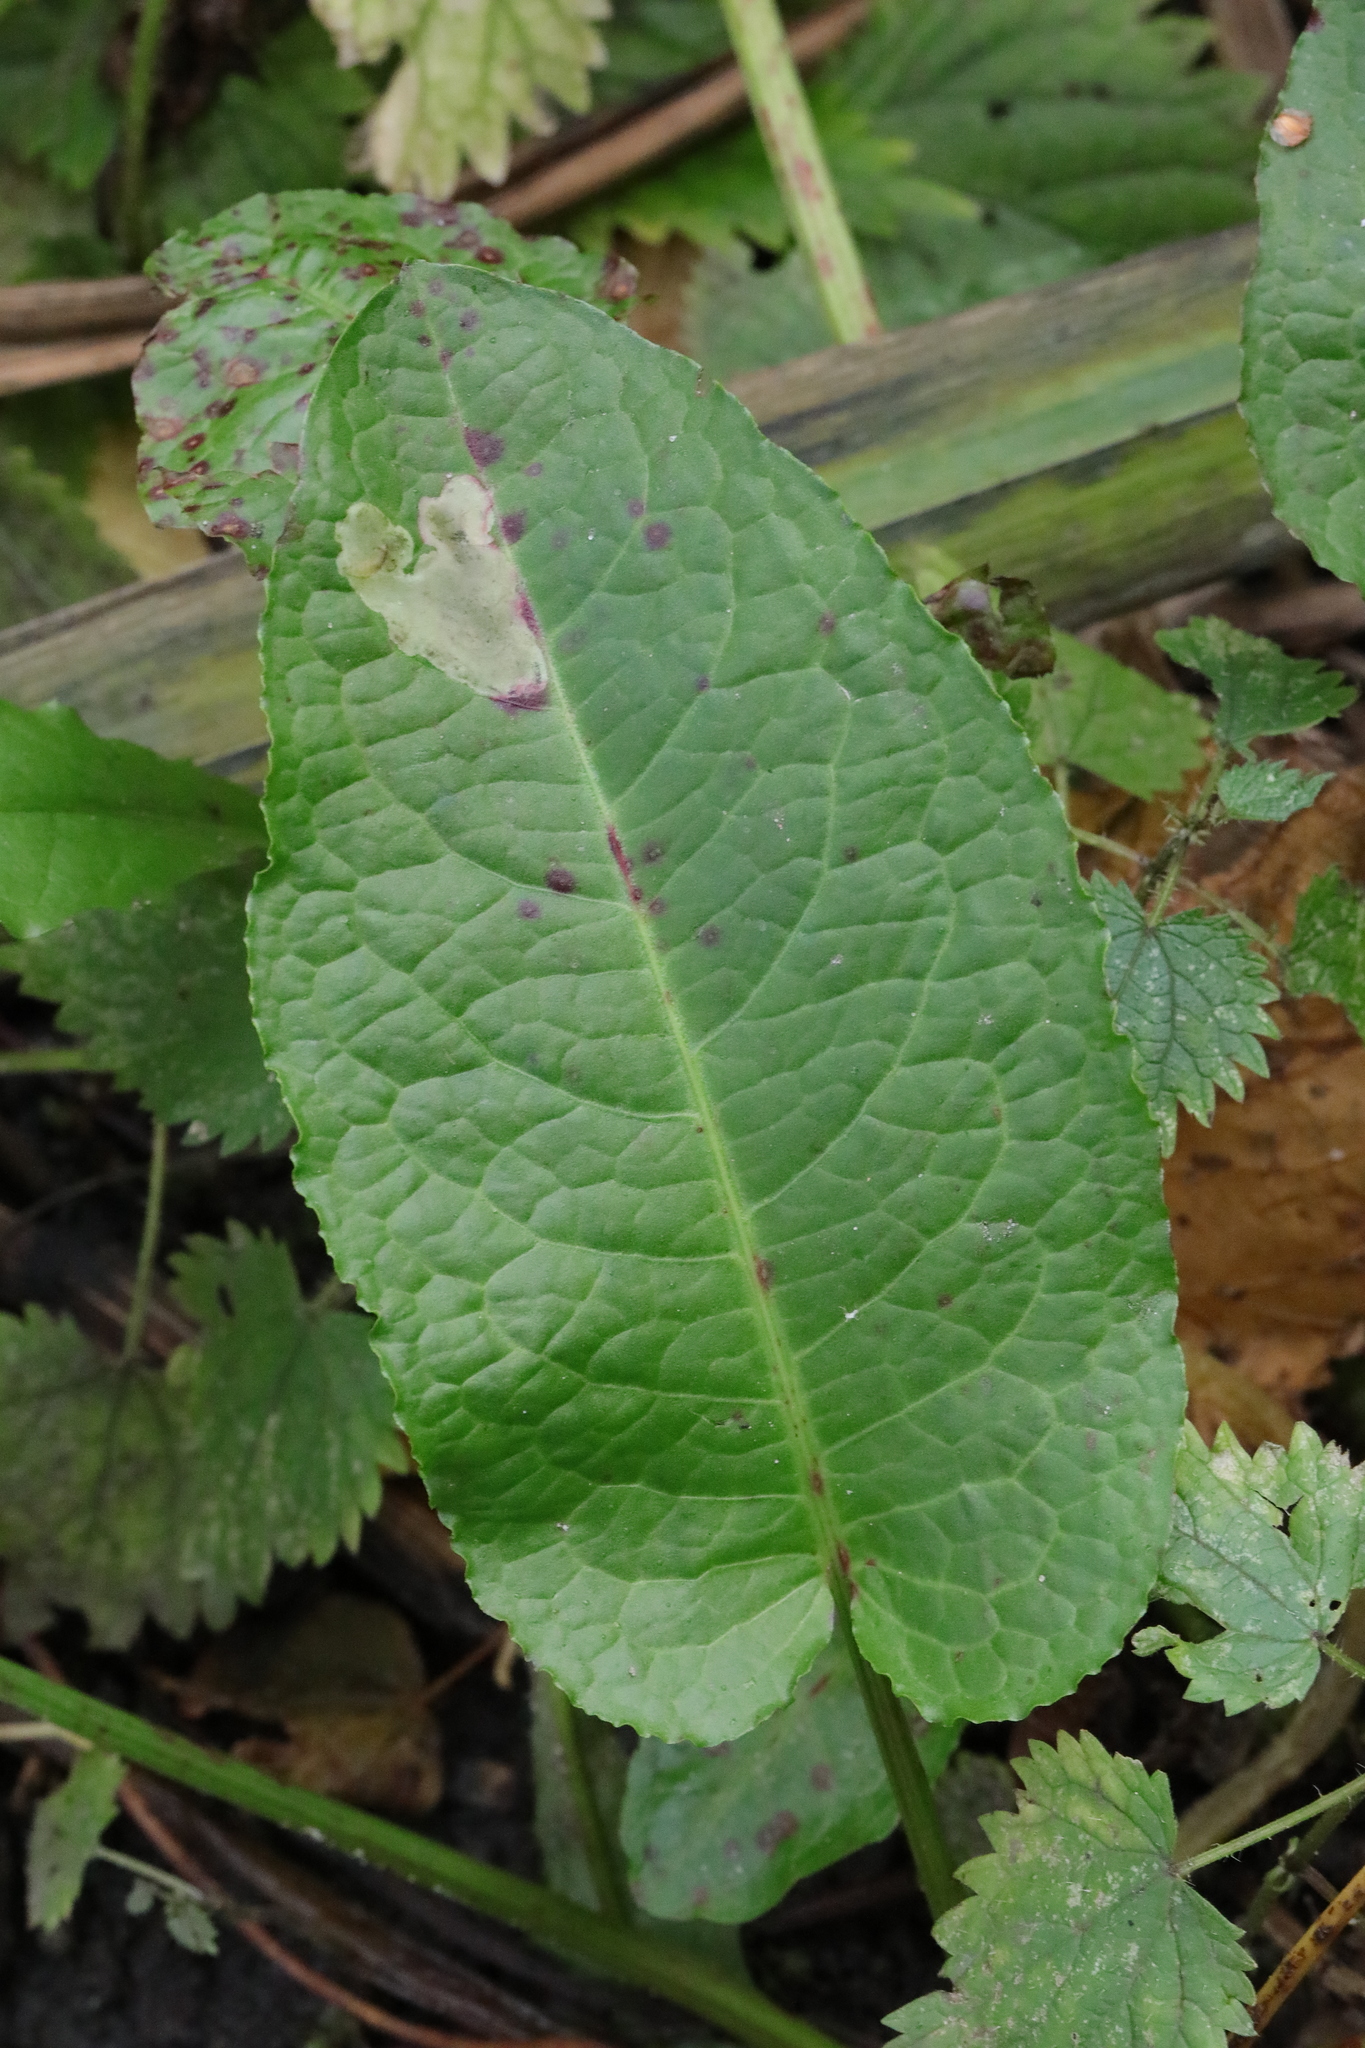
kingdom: Plantae
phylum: Tracheophyta
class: Magnoliopsida
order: Caryophyllales
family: Polygonaceae
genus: Rumex
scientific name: Rumex obtusifolius
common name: Bitter dock
